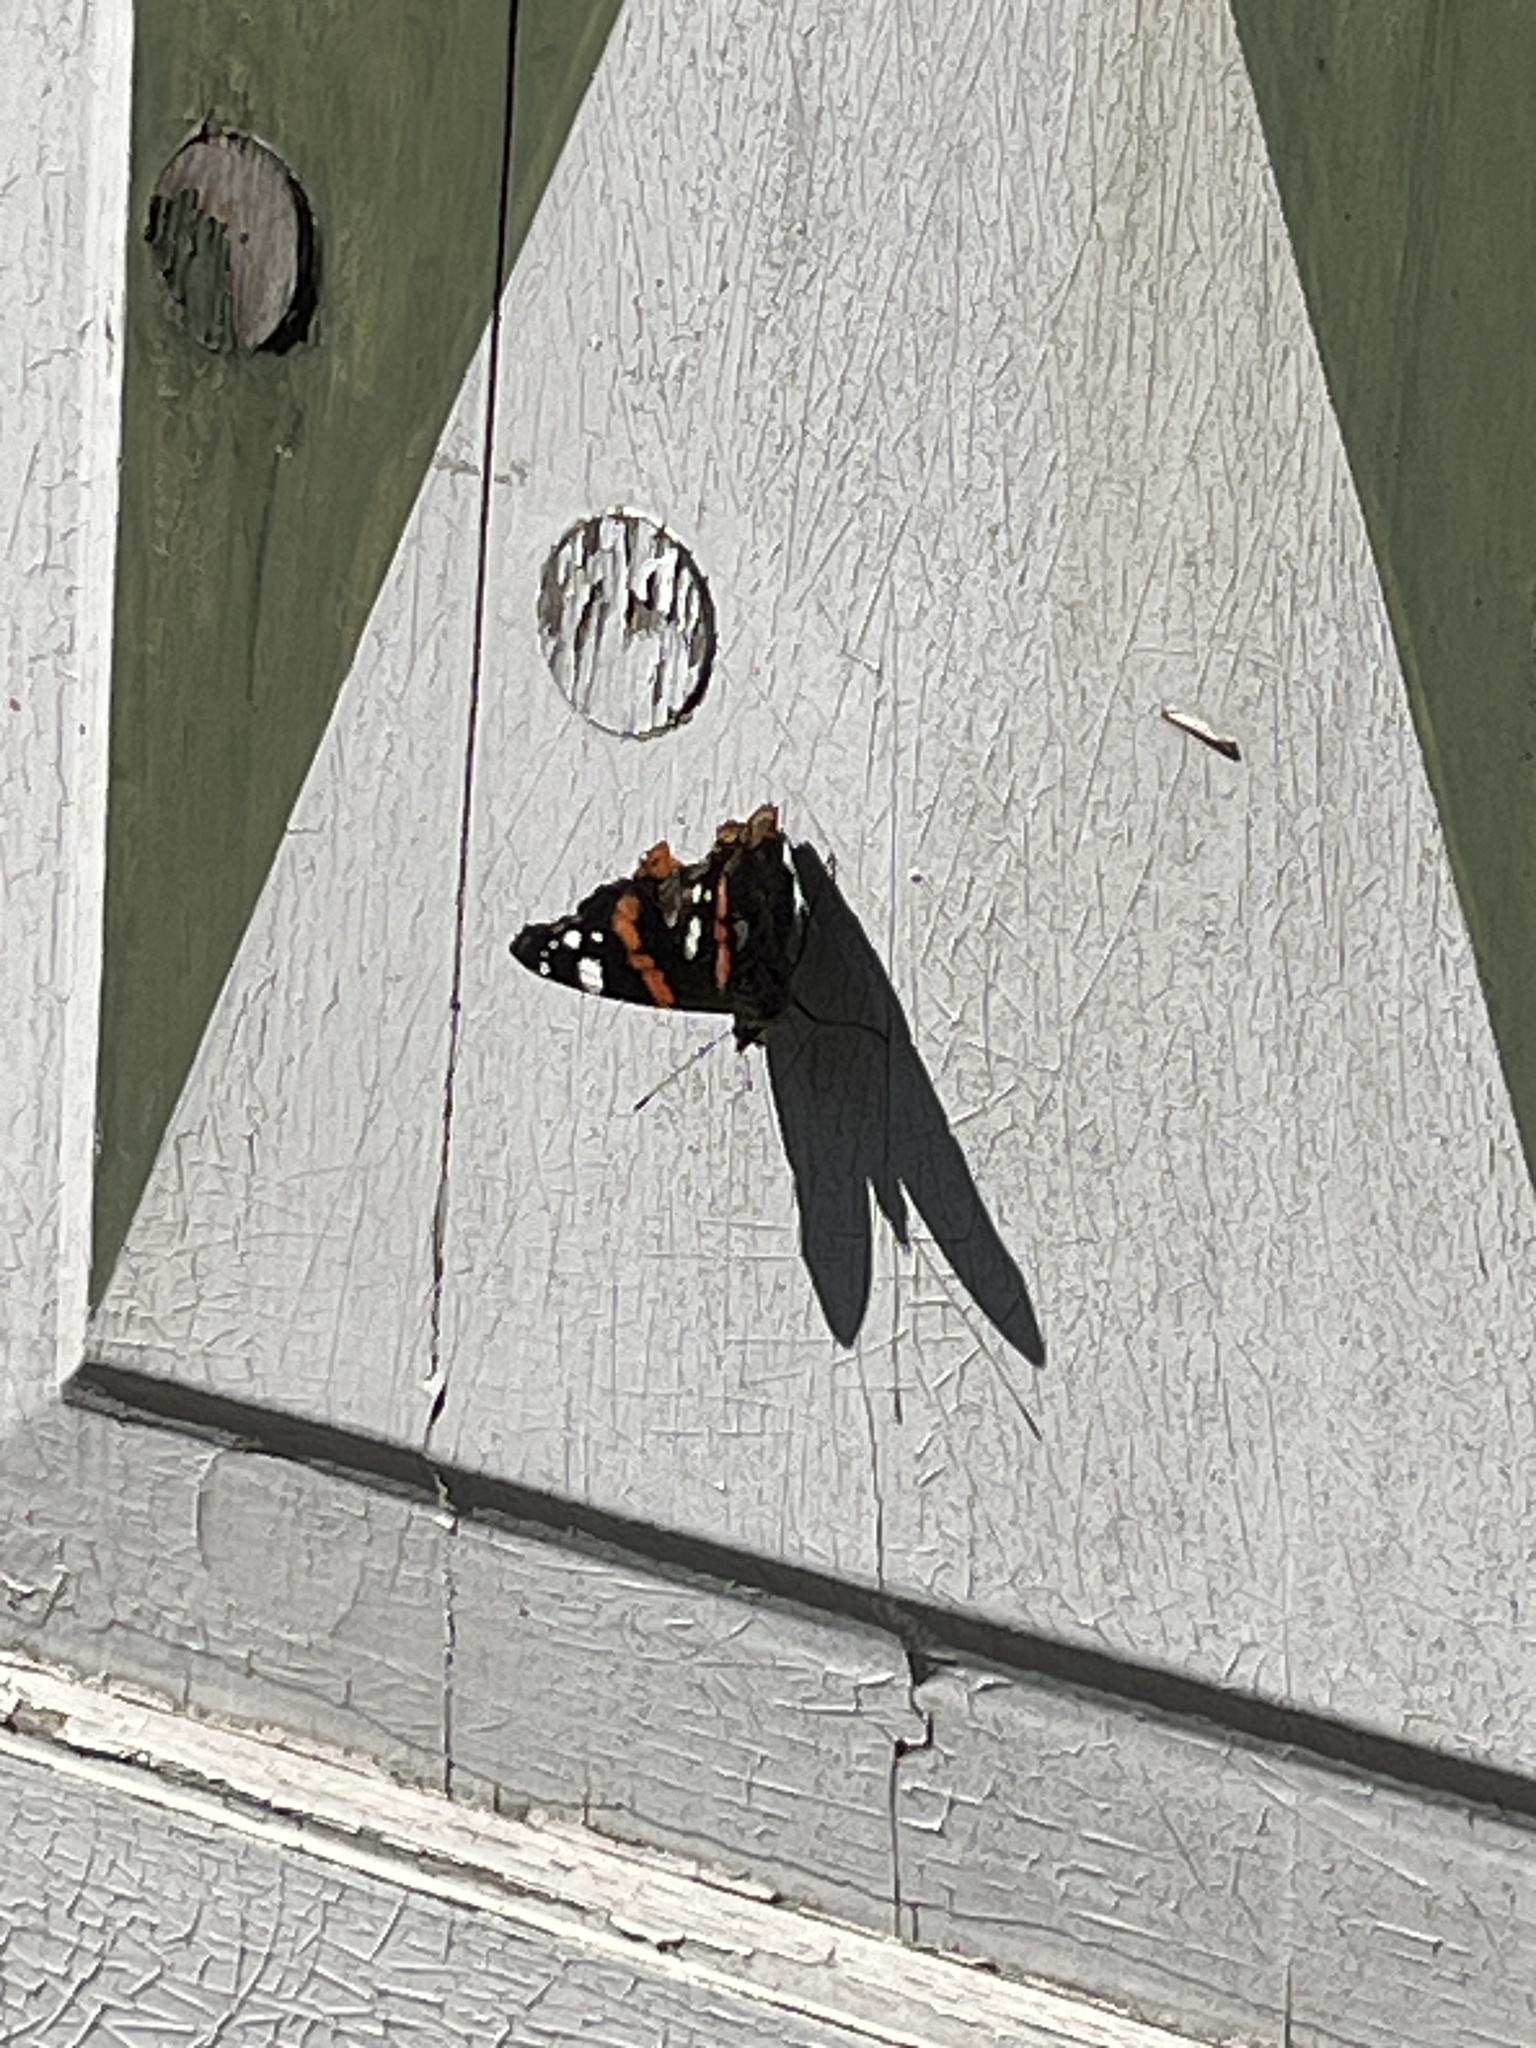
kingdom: Animalia
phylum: Arthropoda
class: Insecta
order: Lepidoptera
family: Nymphalidae
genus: Vanessa
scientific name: Vanessa atalanta
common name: Red admiral
